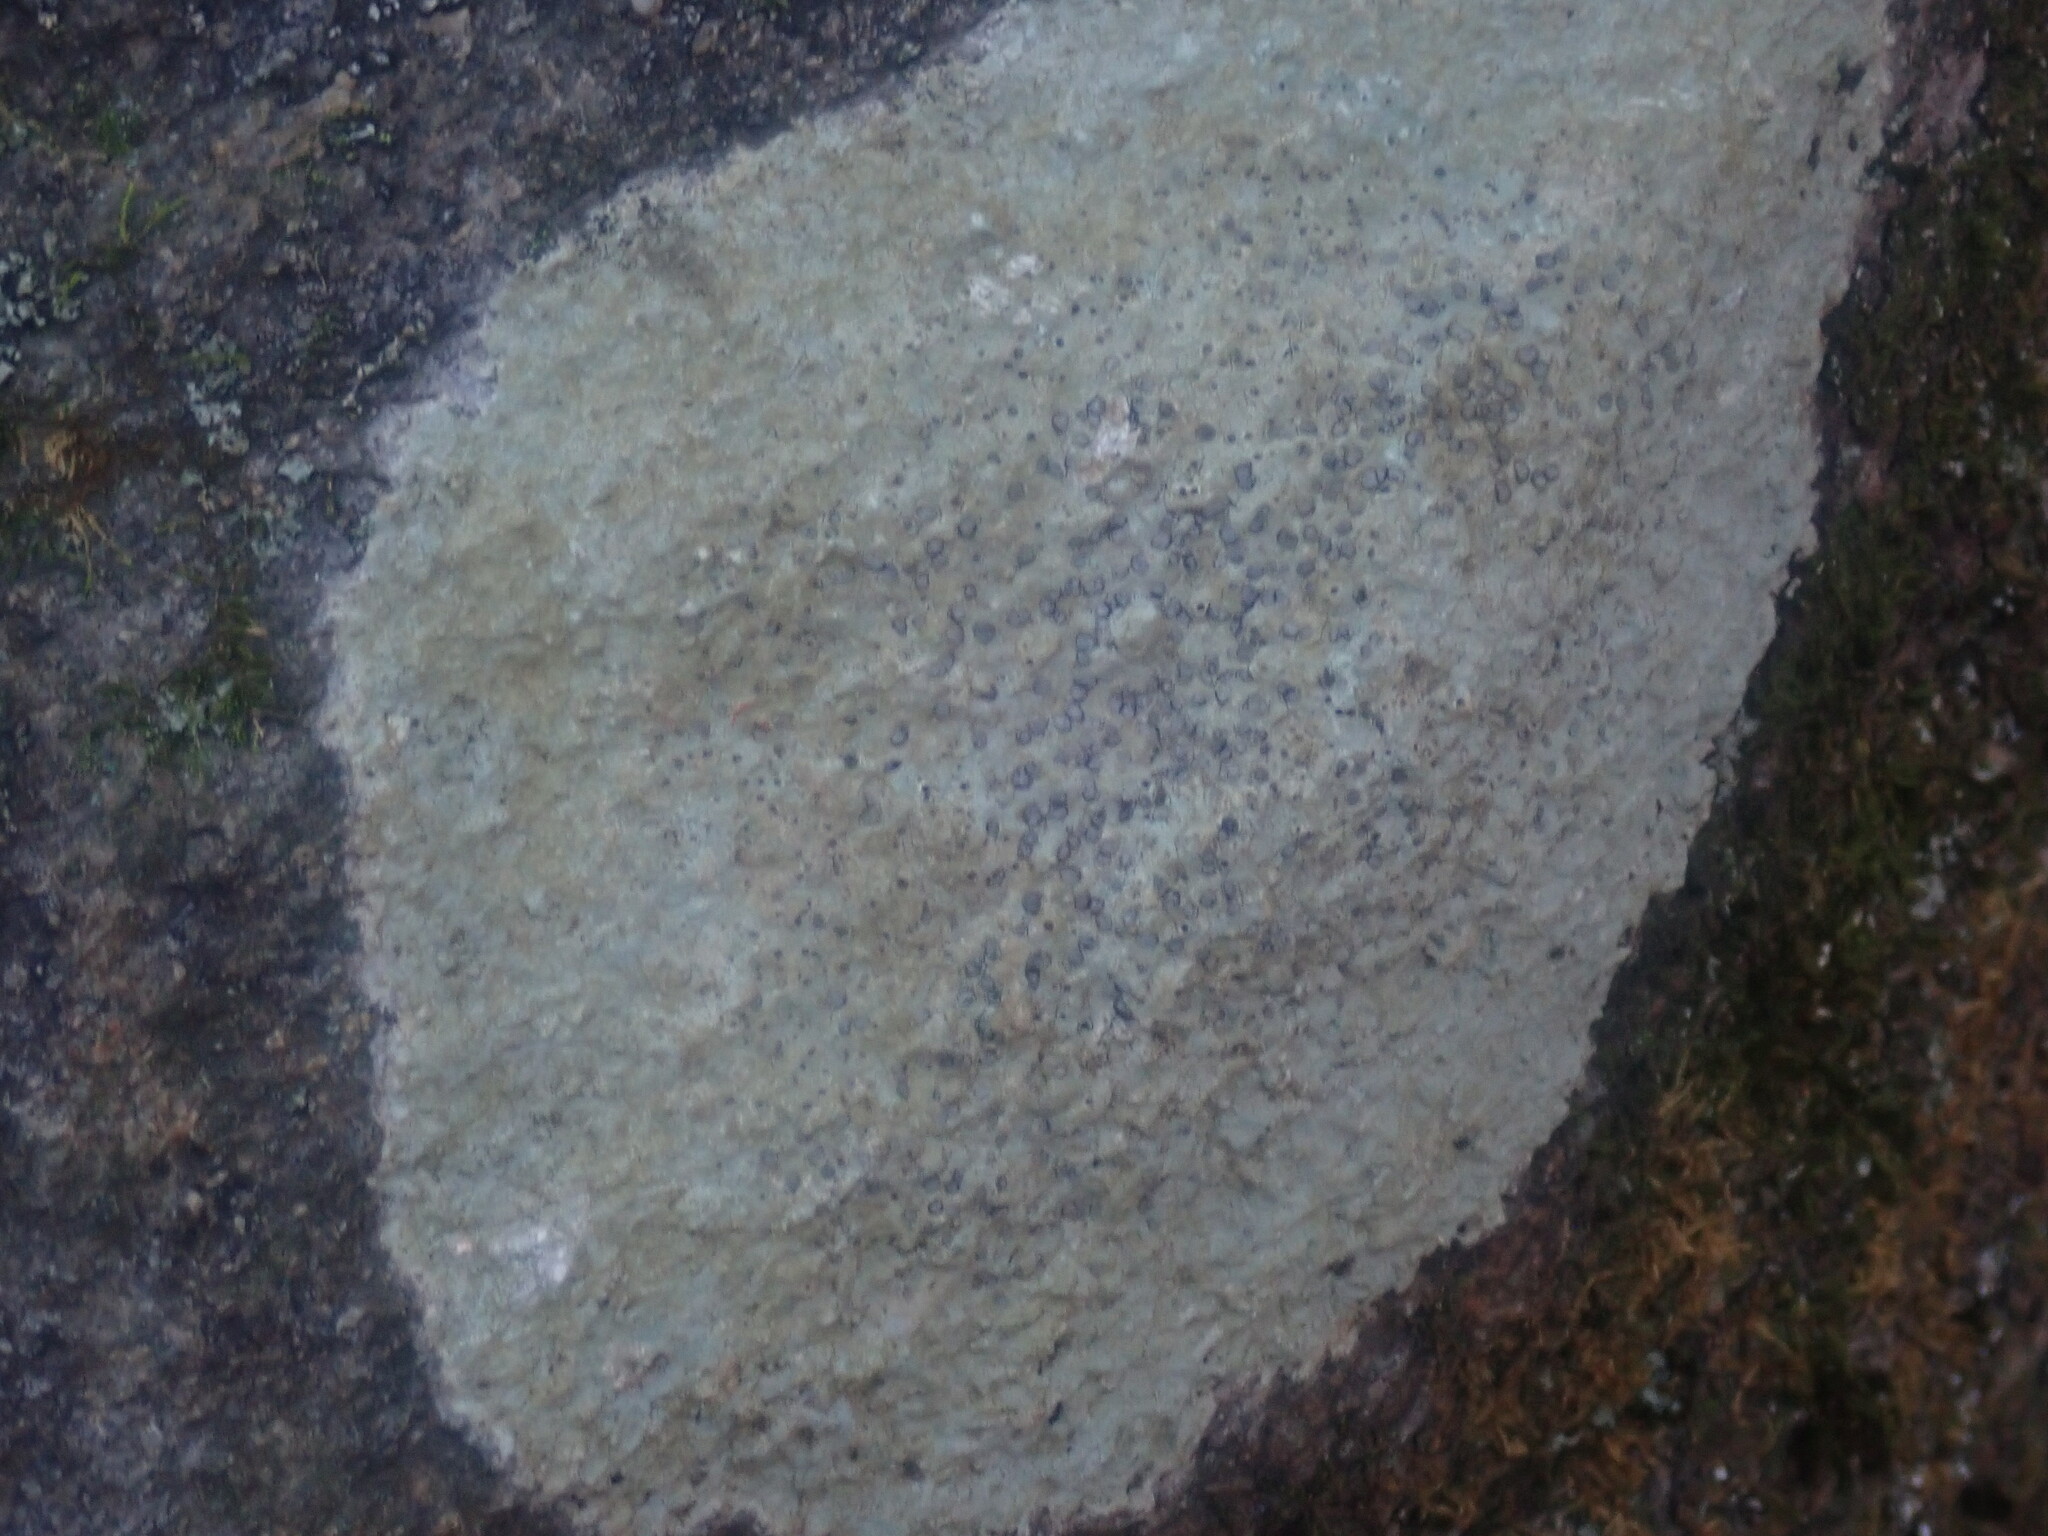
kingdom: Fungi
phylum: Ascomycota
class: Lecanoromycetes
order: Lecideales
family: Lecideaceae
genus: Porpidia
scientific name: Porpidia albocaerulescens
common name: Smokey-eyed boulder lichen
